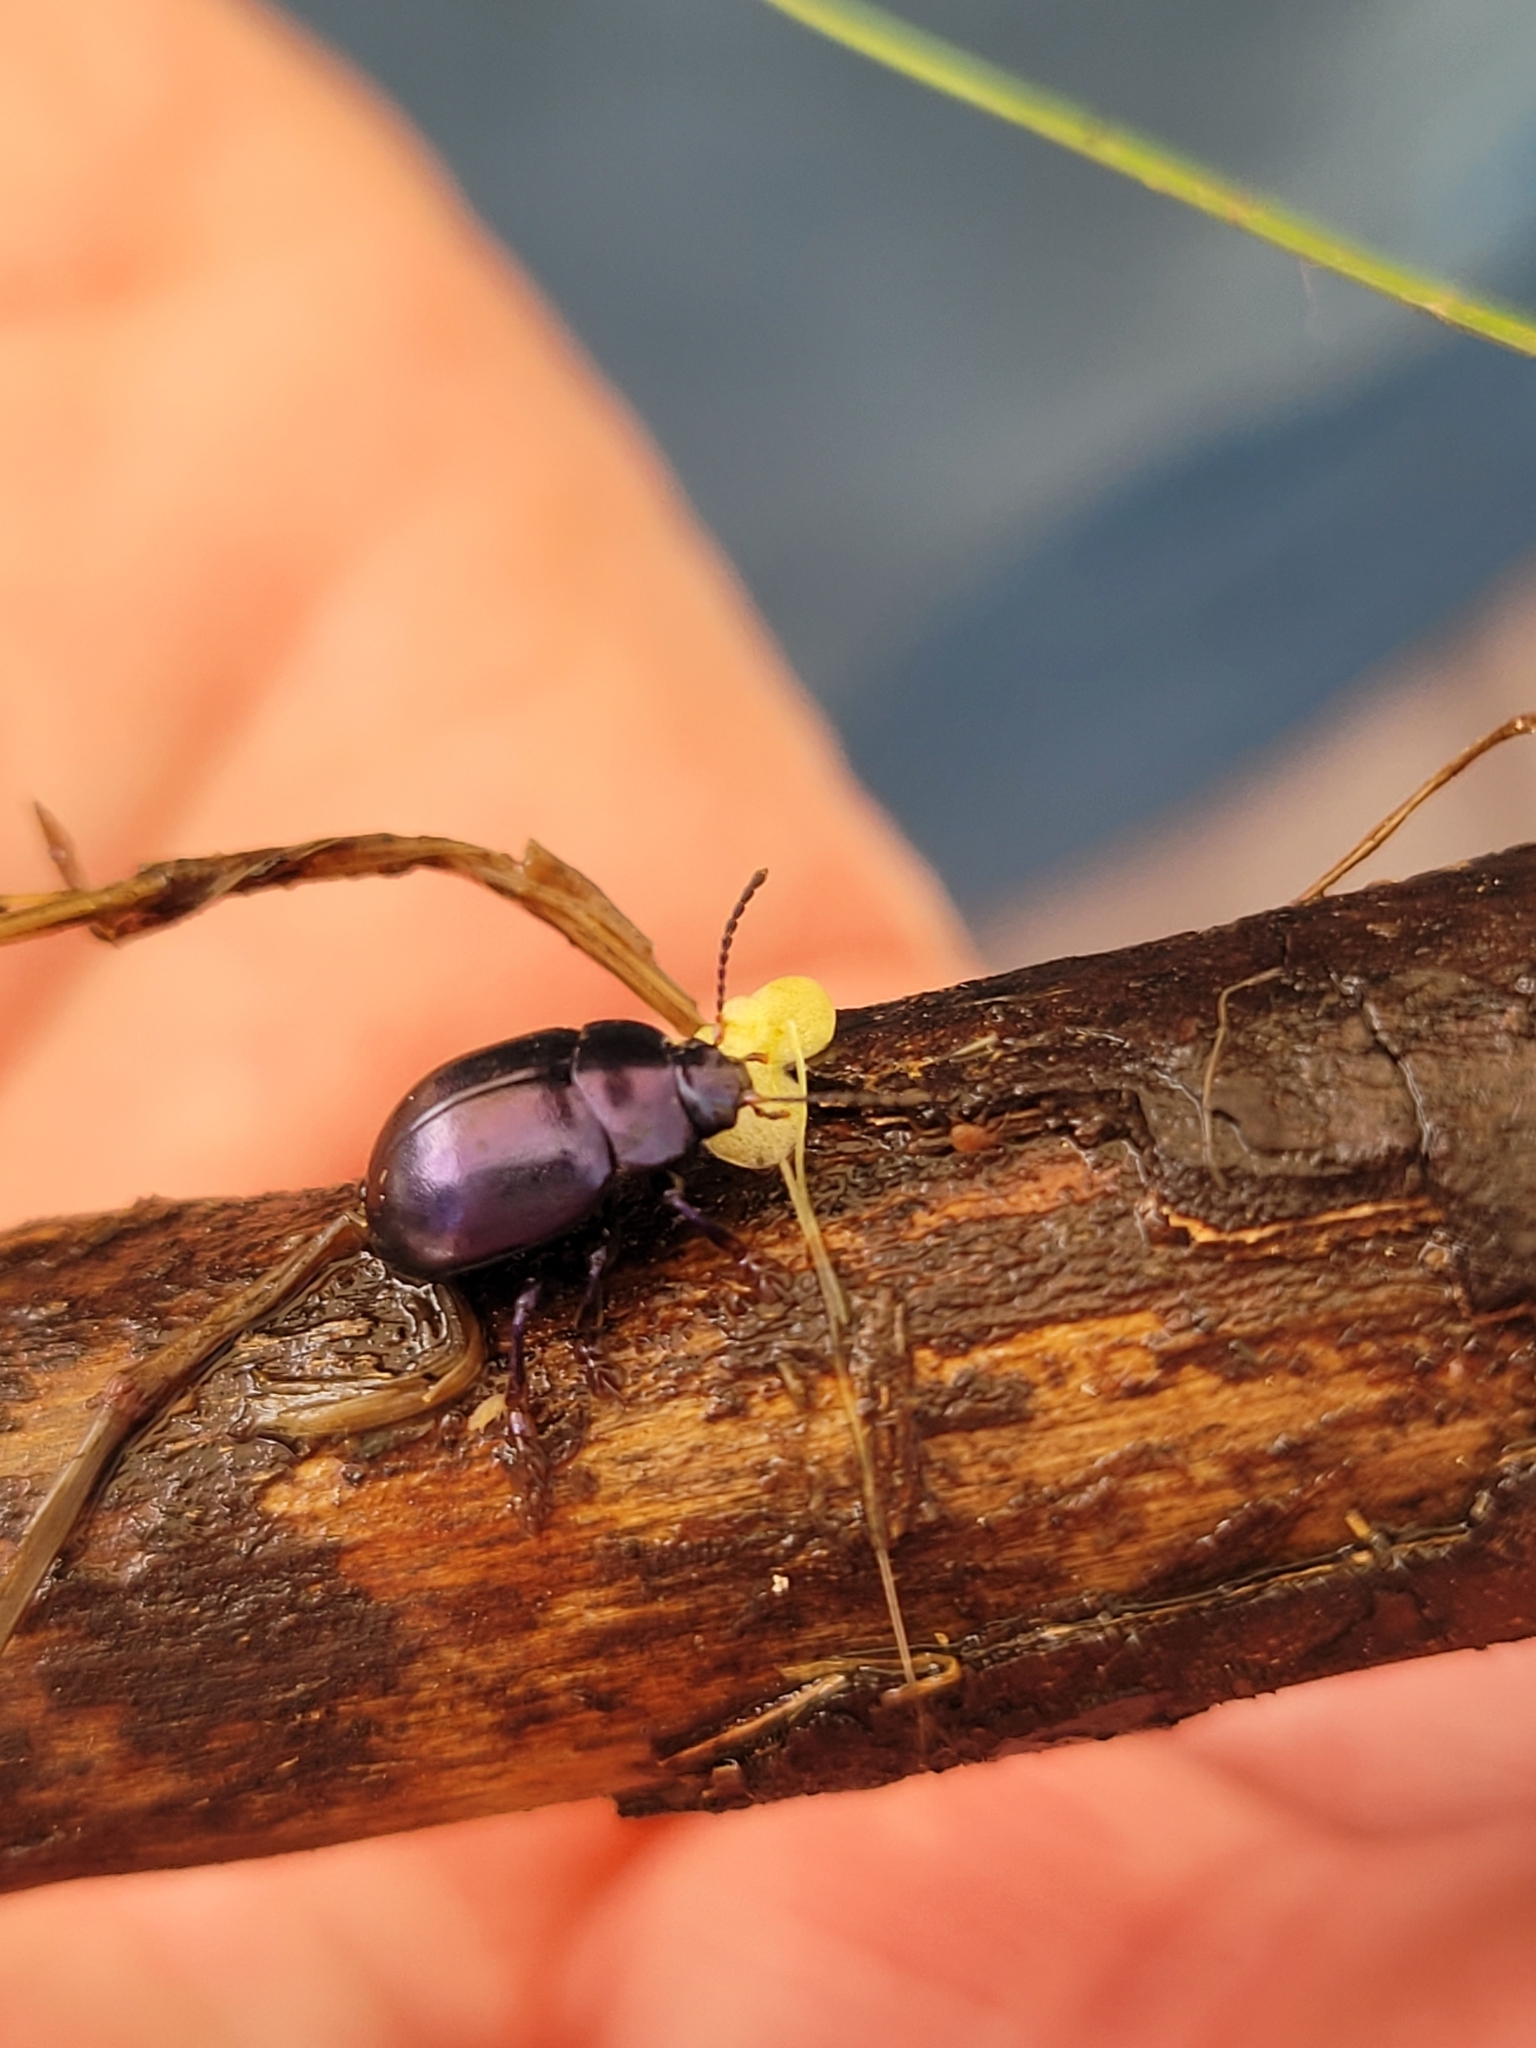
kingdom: Animalia
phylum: Arthropoda
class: Insecta
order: Coleoptera
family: Chrysomelidae
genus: Chrysolina
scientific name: Chrysolina sturmi
